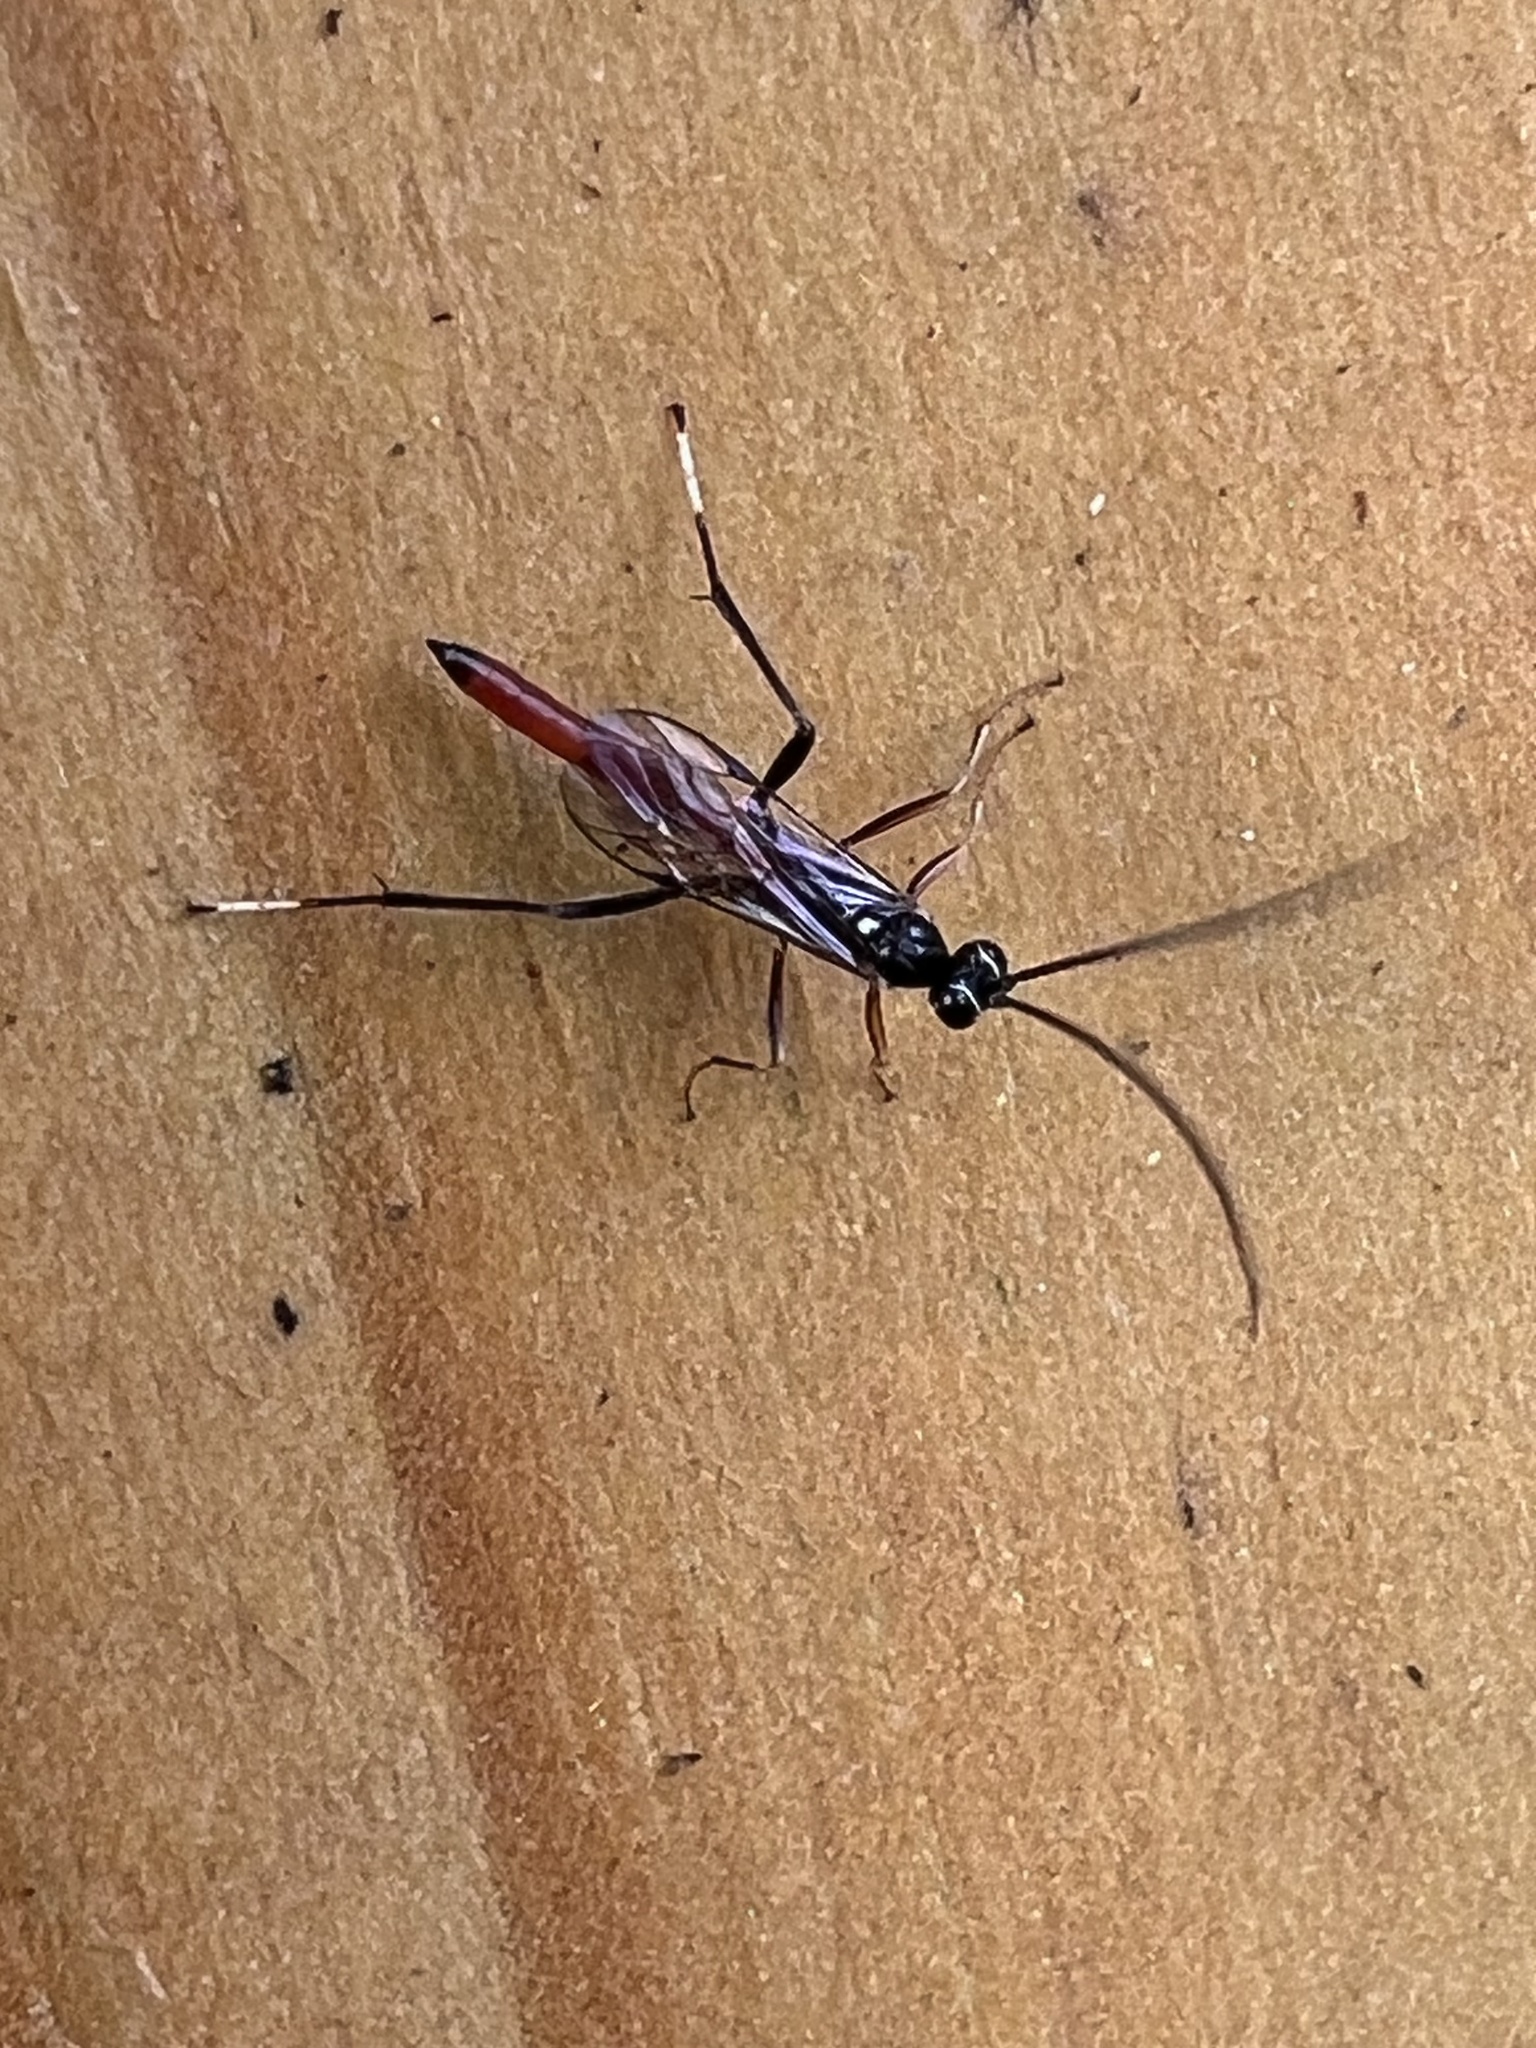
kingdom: Animalia
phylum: Arthropoda
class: Insecta
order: Hymenoptera
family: Ichneumonidae
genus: Cryptus
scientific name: Cryptus albitarsis
